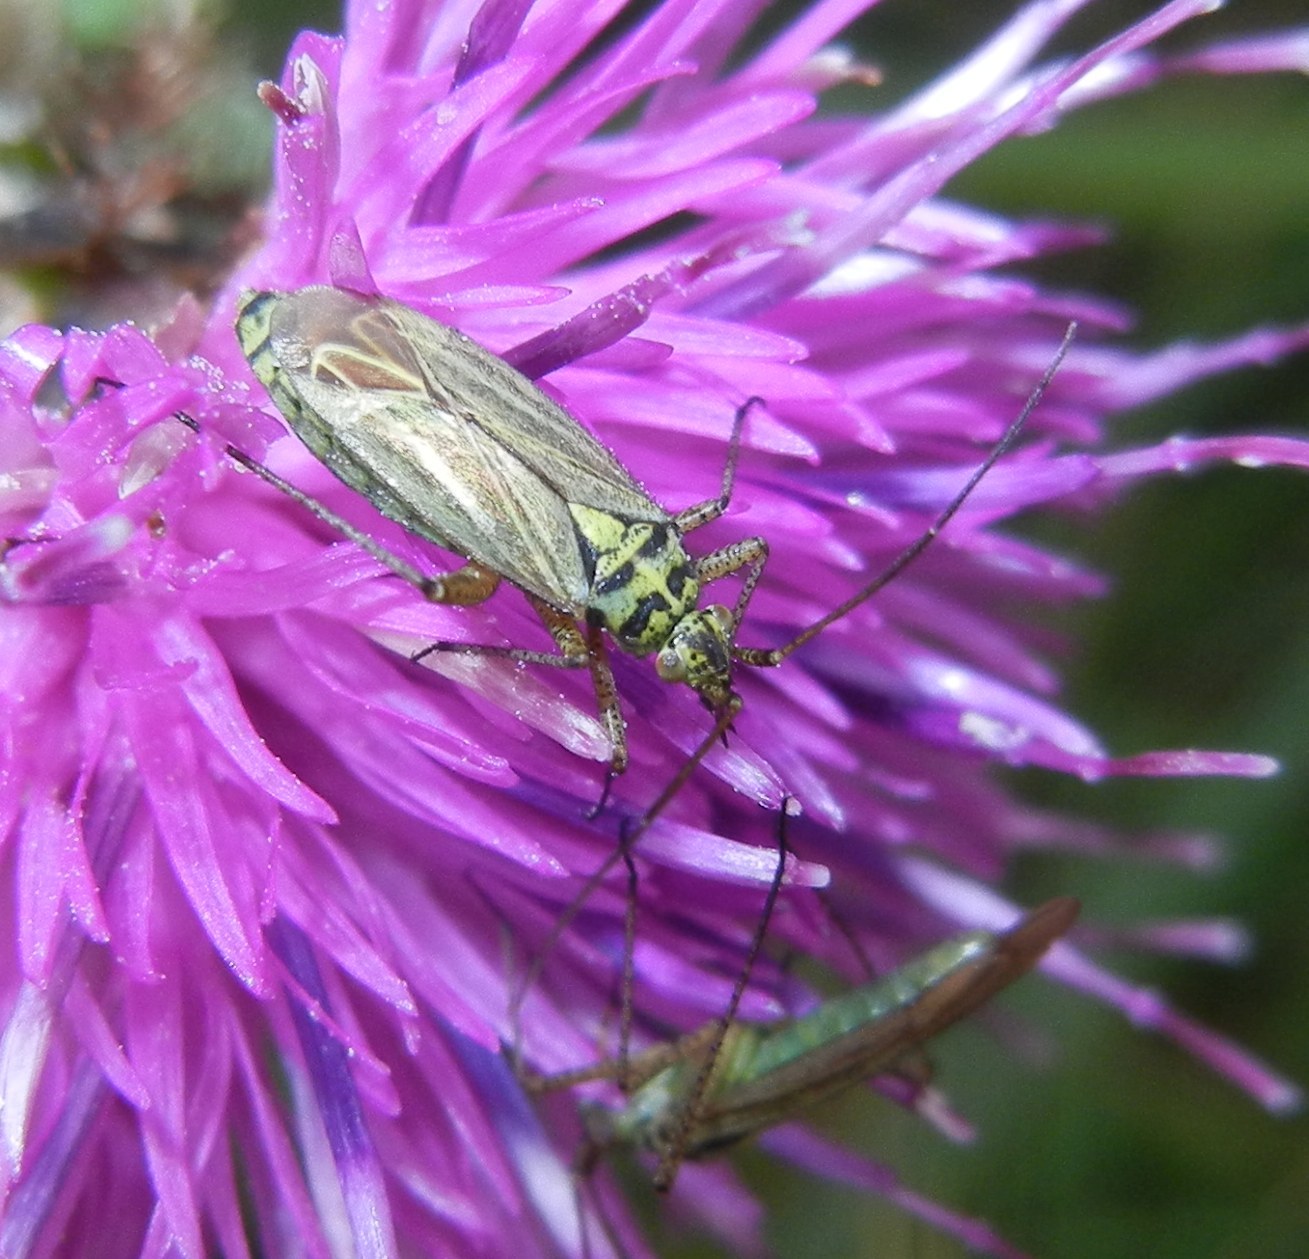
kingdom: Animalia
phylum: Arthropoda
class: Insecta
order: Hemiptera
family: Miridae
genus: Oncotylus
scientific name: Oncotylus viridiflavus
